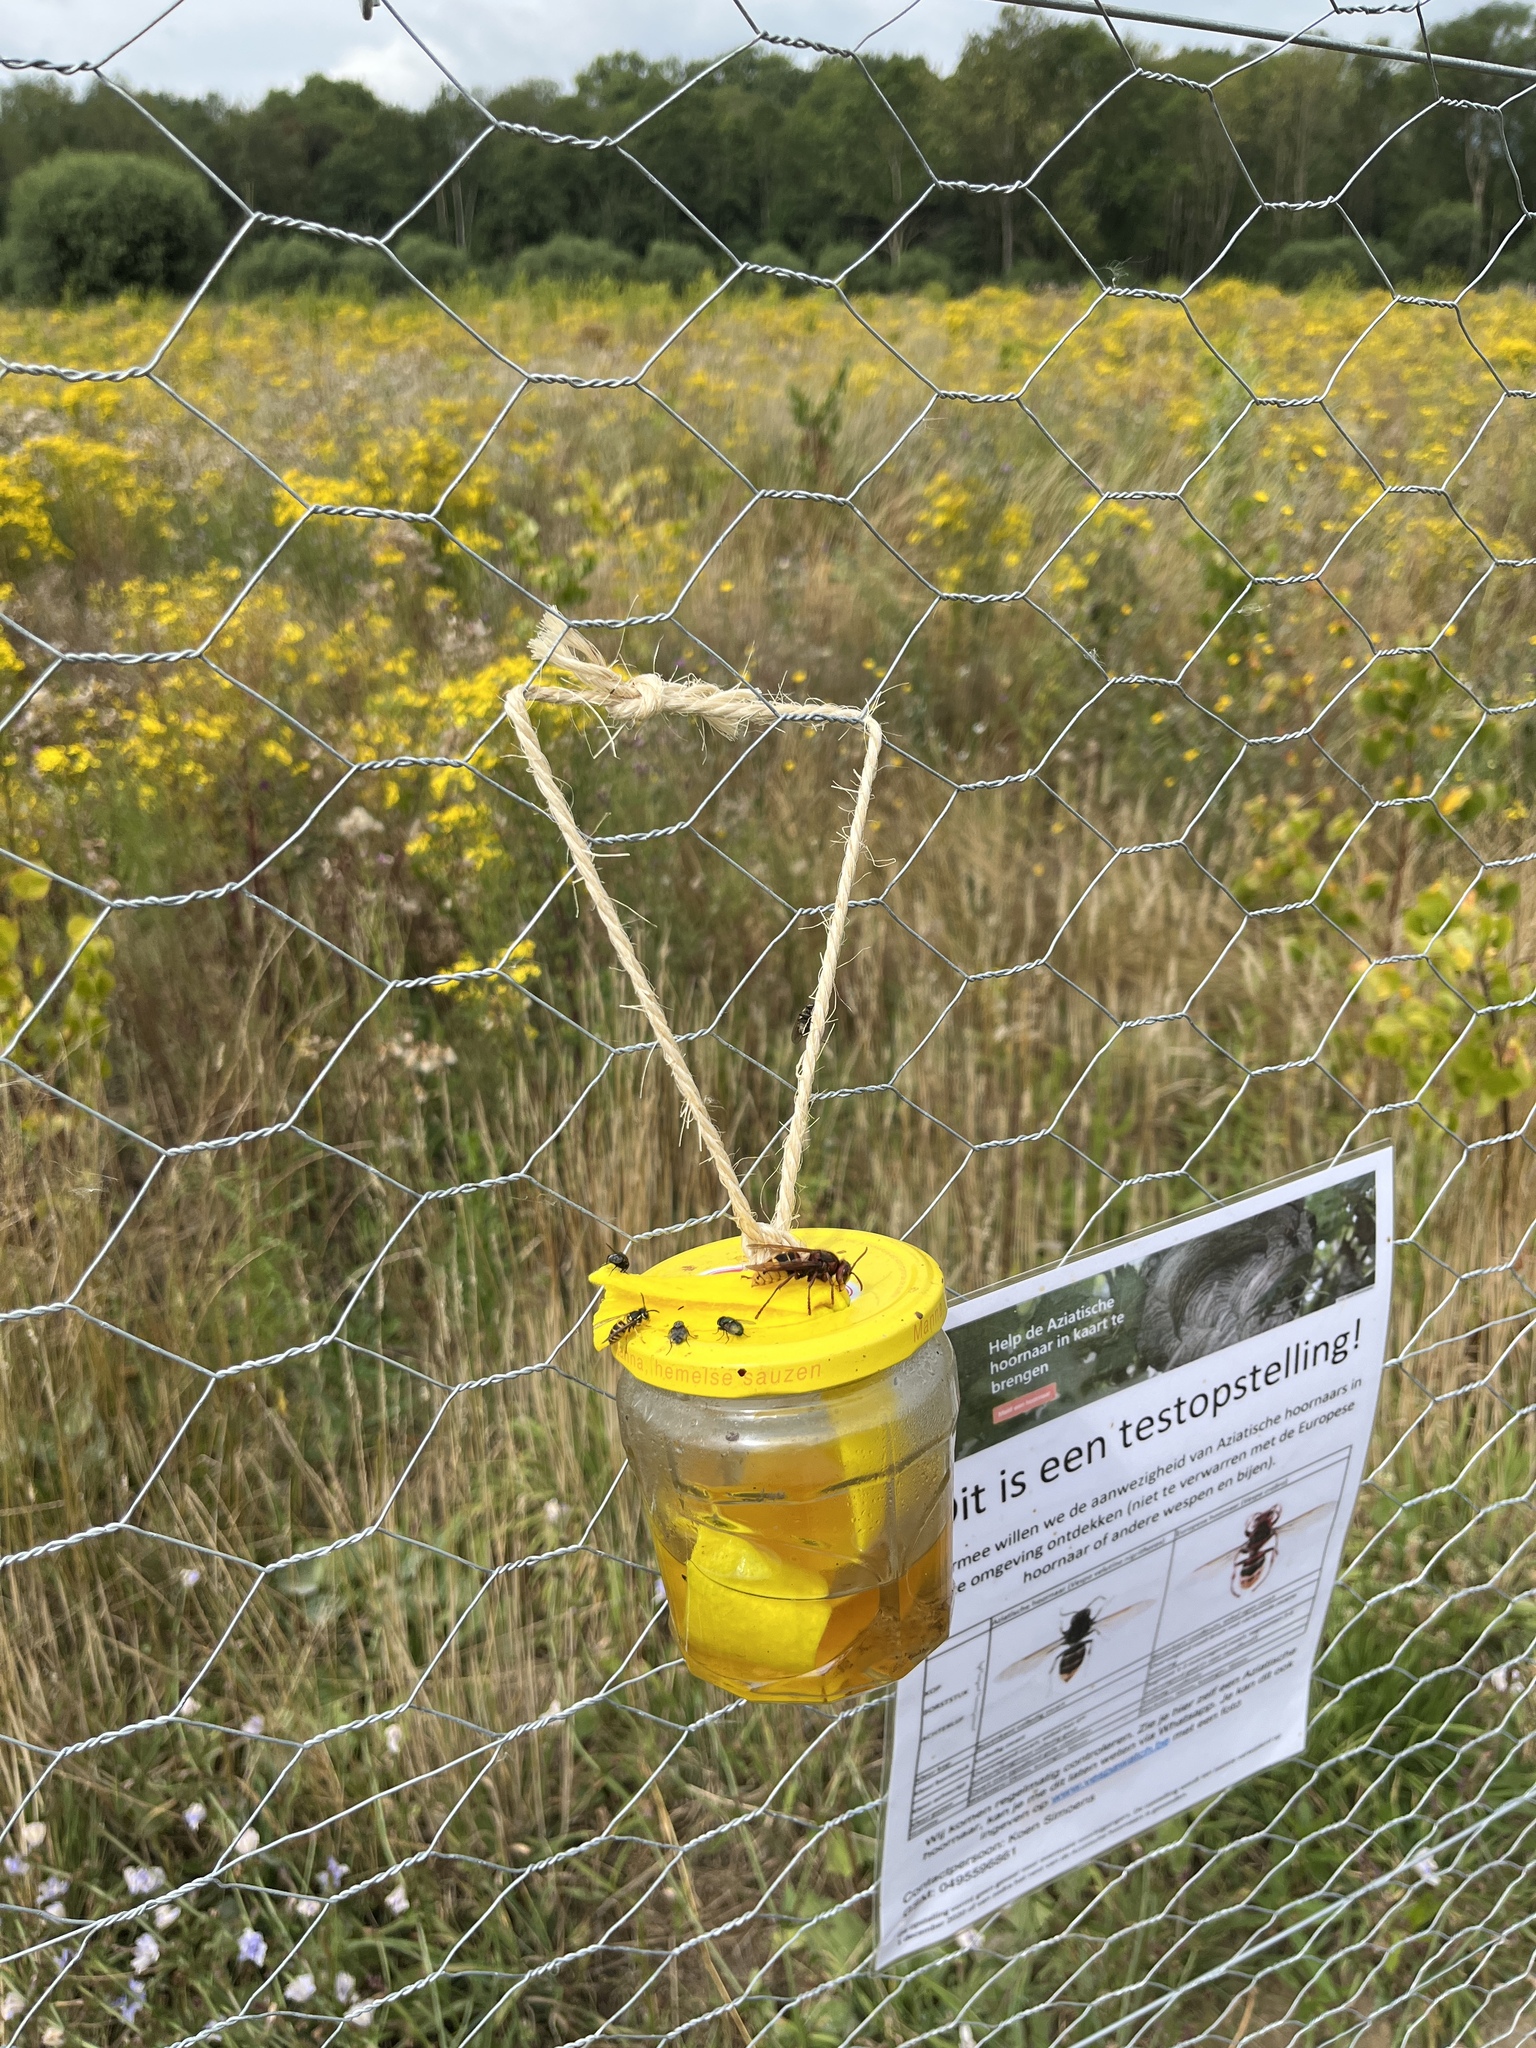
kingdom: Animalia
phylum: Arthropoda
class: Insecta
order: Hymenoptera
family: Vespidae
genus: Vespa
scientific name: Vespa crabro
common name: Hornet
